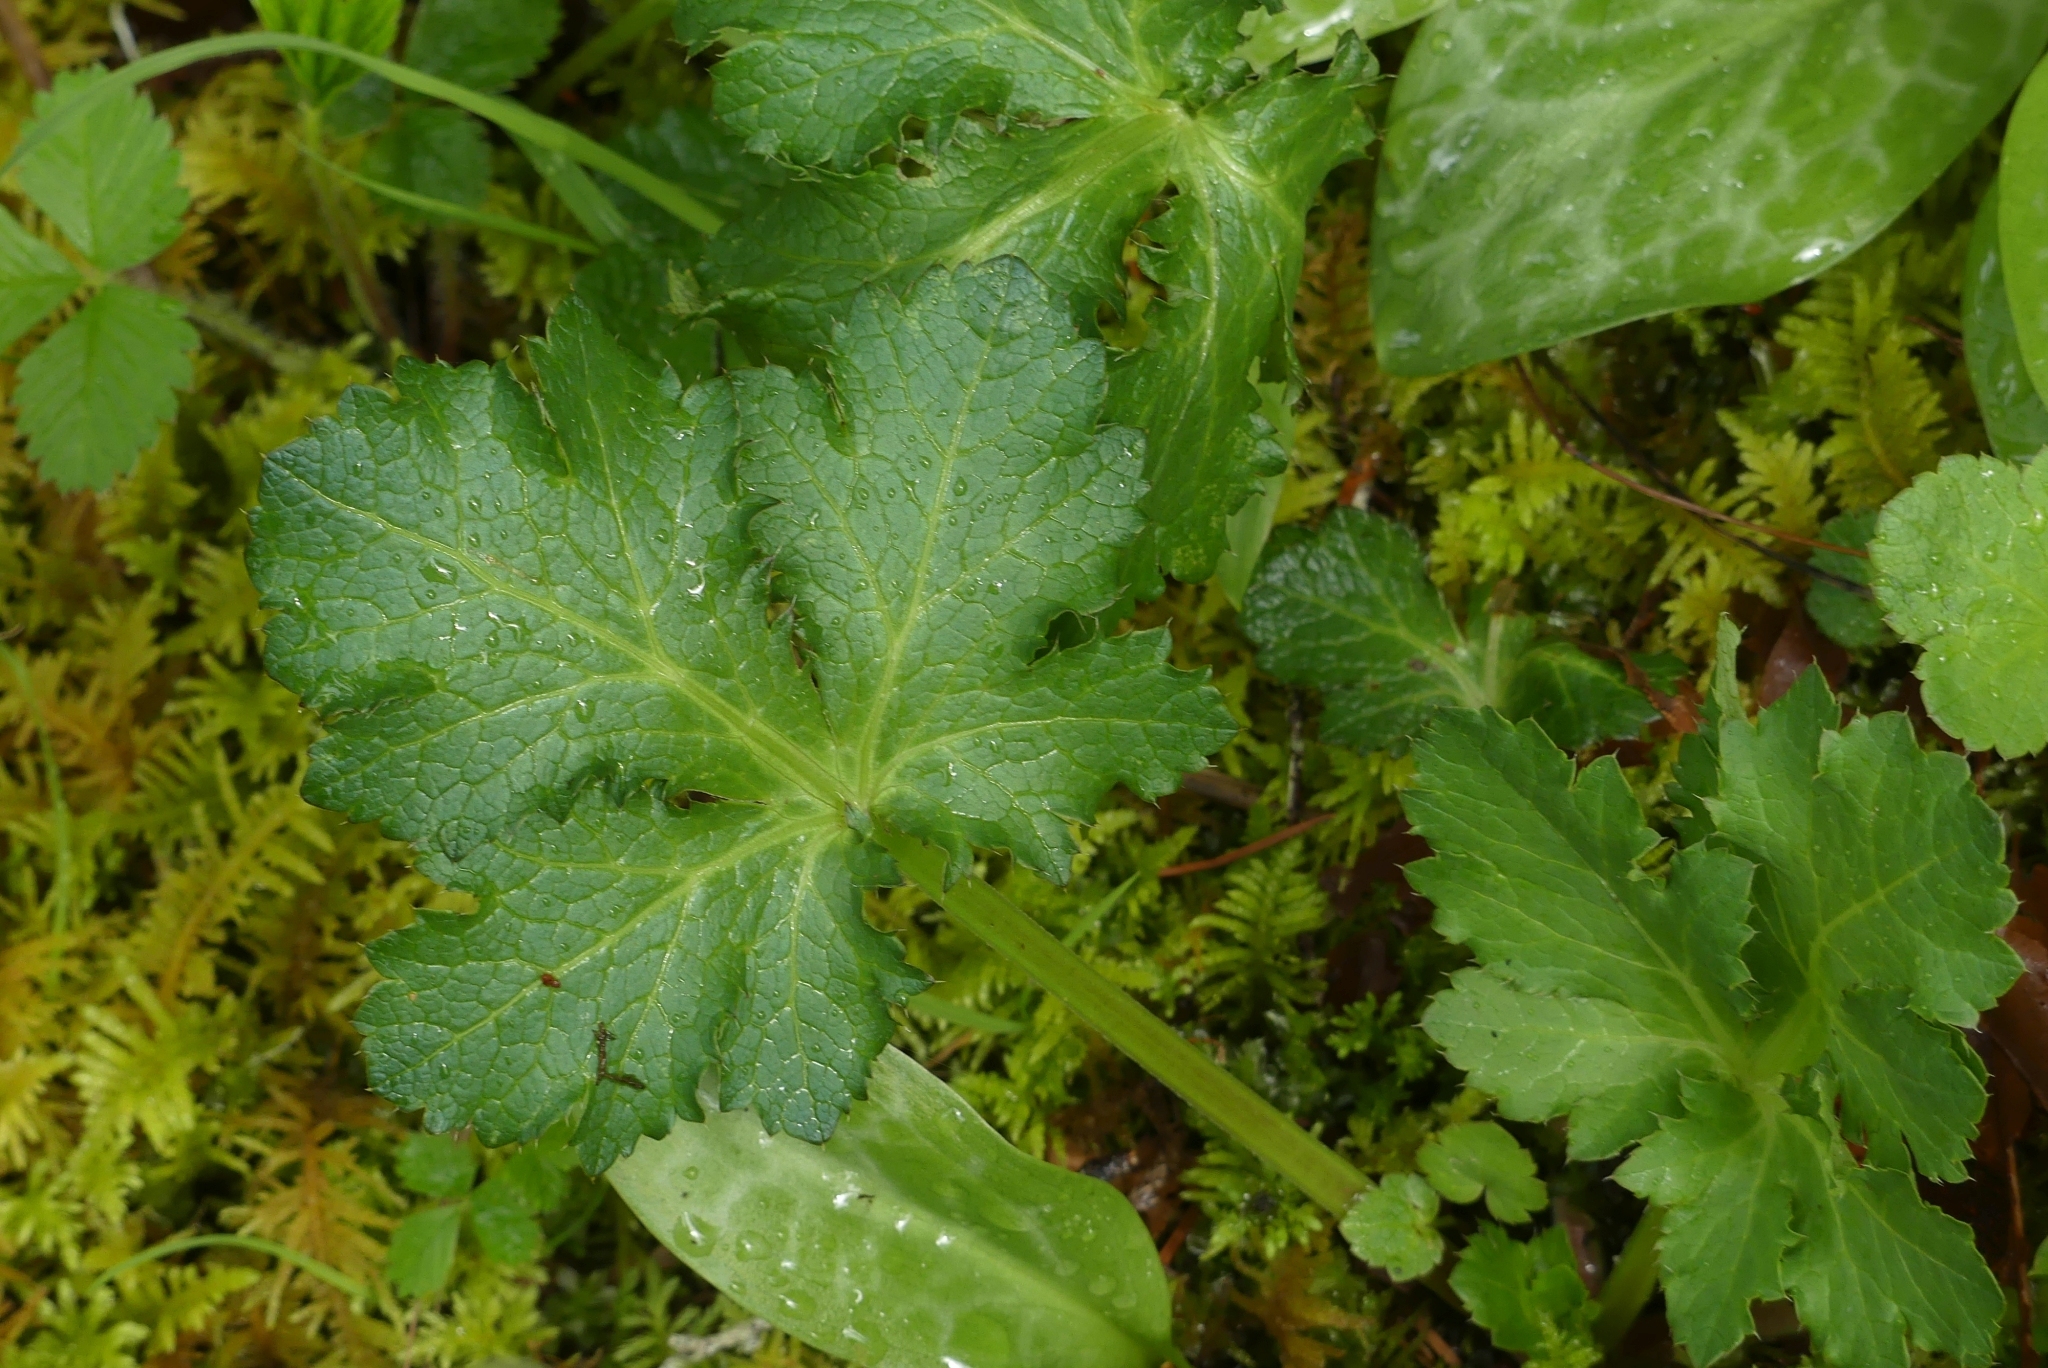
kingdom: Plantae
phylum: Tracheophyta
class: Magnoliopsida
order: Apiales
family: Apiaceae
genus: Sanicula
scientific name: Sanicula crassicaulis
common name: Western snakeroot
